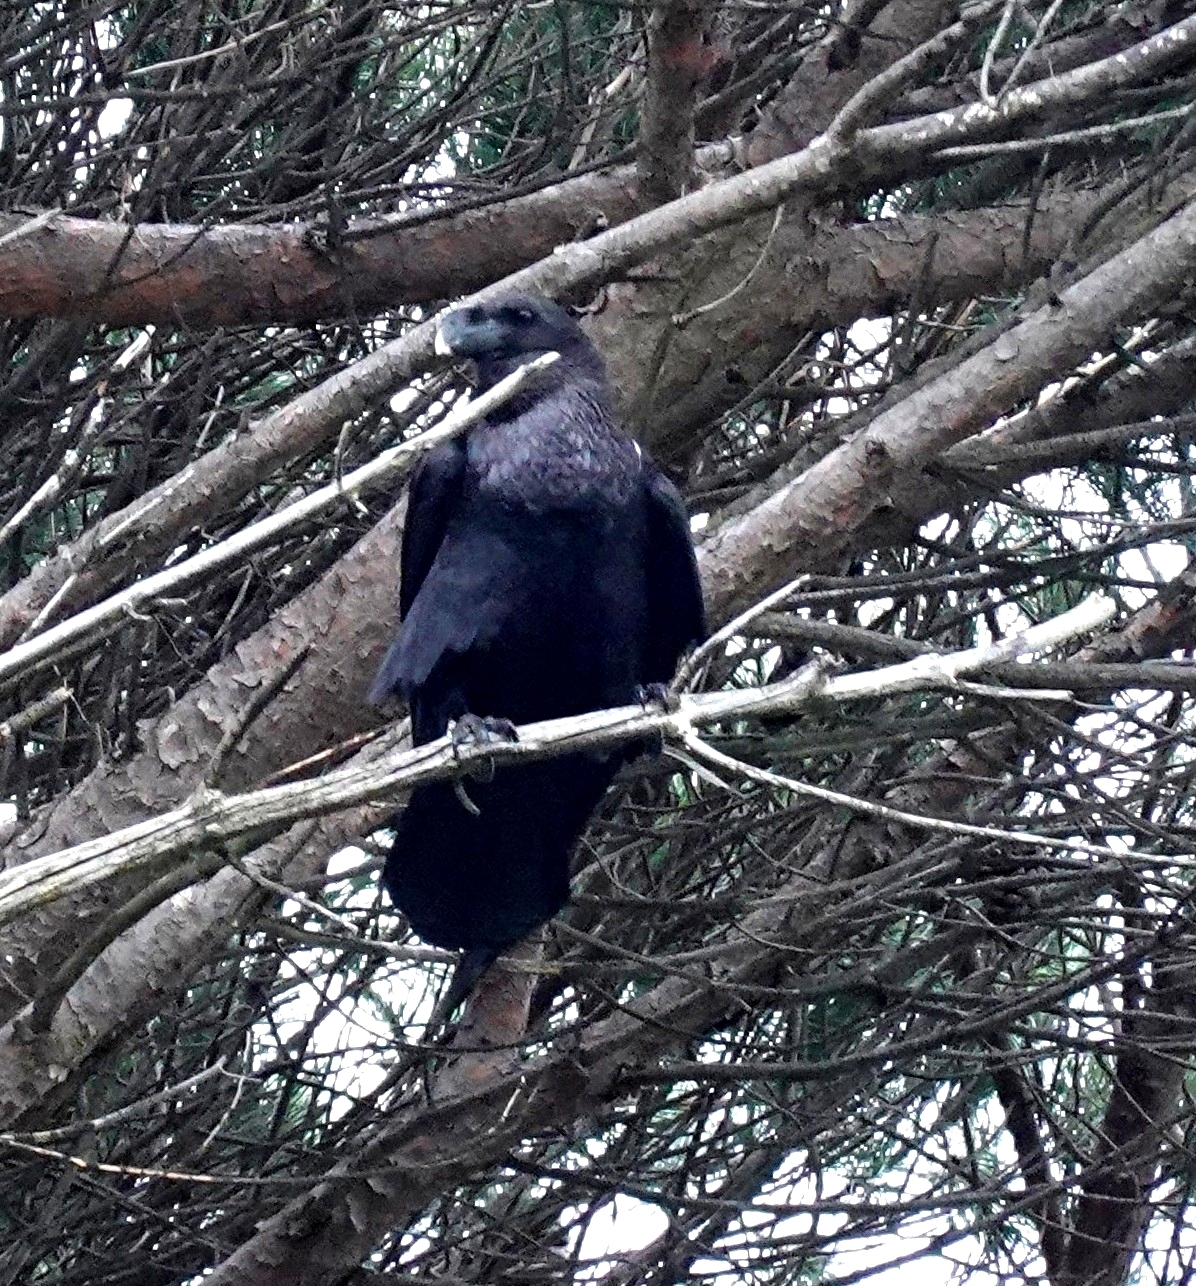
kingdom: Animalia
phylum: Chordata
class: Aves
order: Passeriformes
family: Corvidae
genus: Corvus
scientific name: Corvus albicollis
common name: White-necked raven
